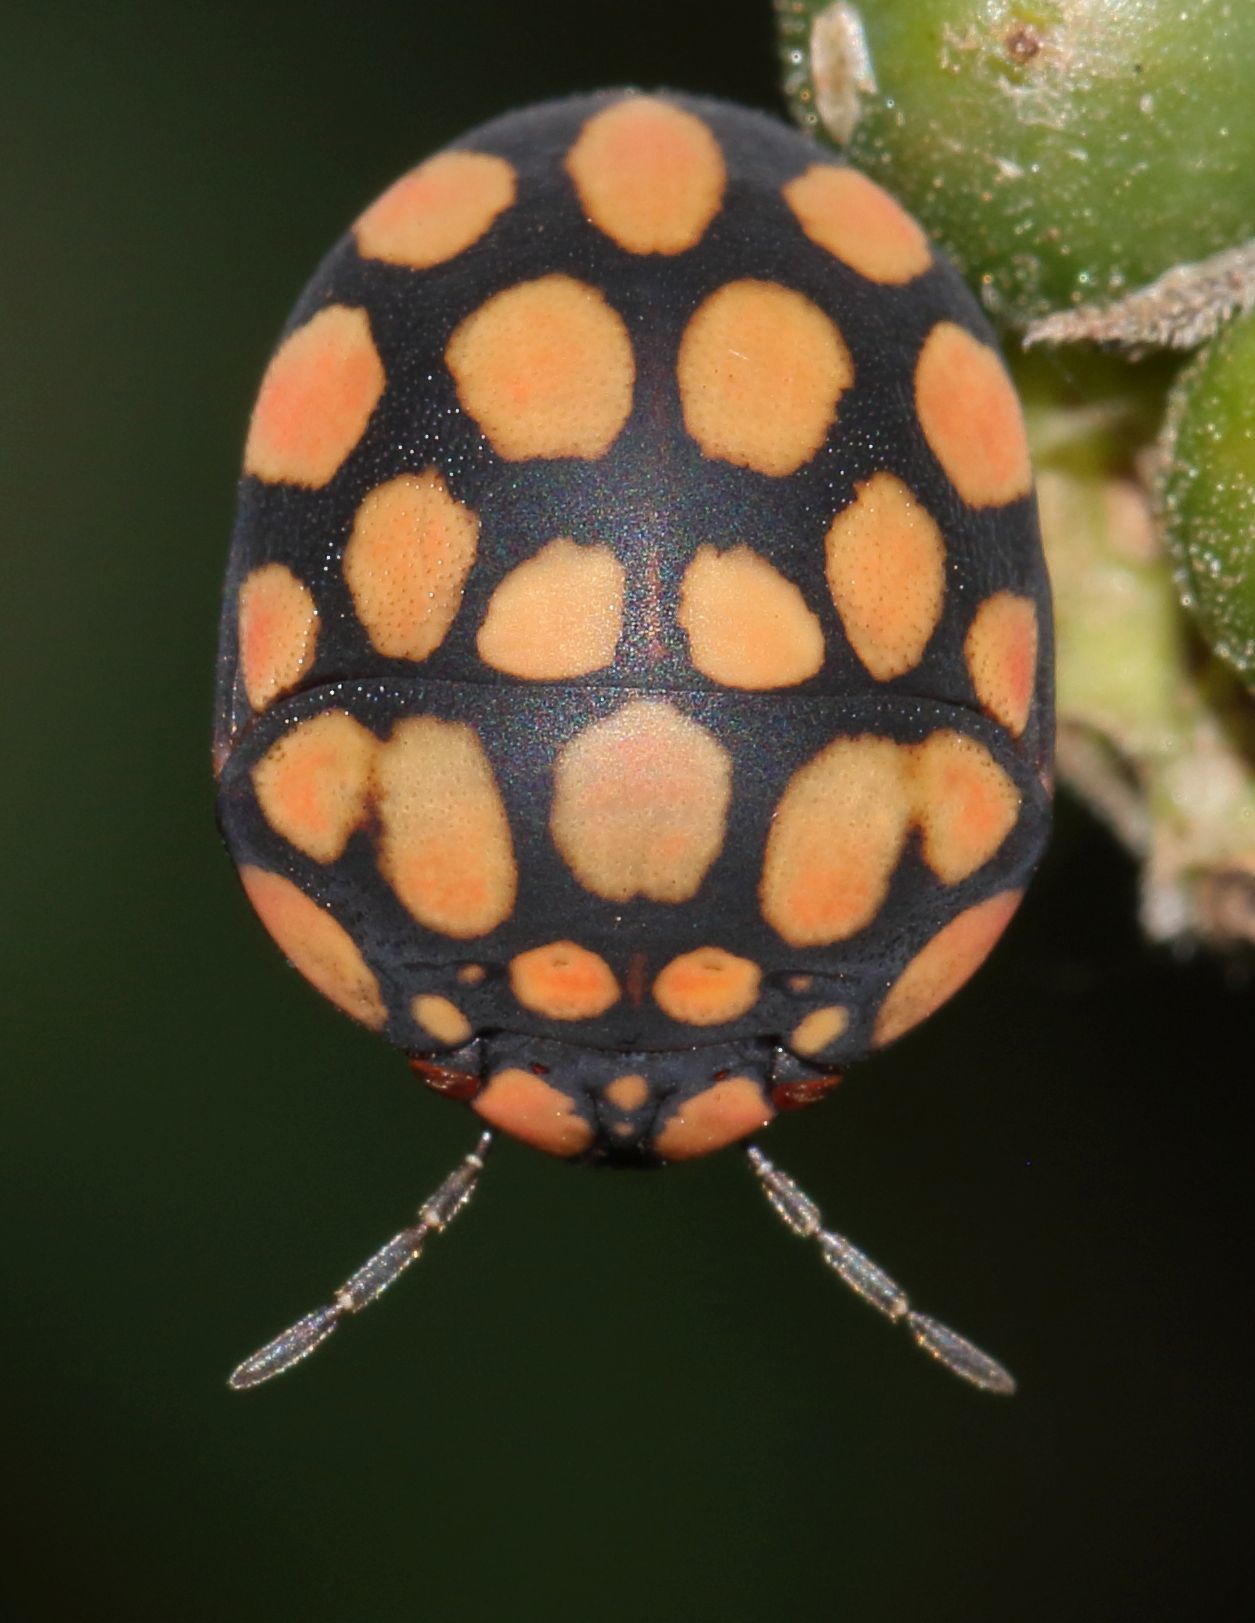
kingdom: Animalia
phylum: Arthropoda
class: Insecta
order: Hemiptera
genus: Steganocerus
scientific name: Steganocerus multipunctatus
